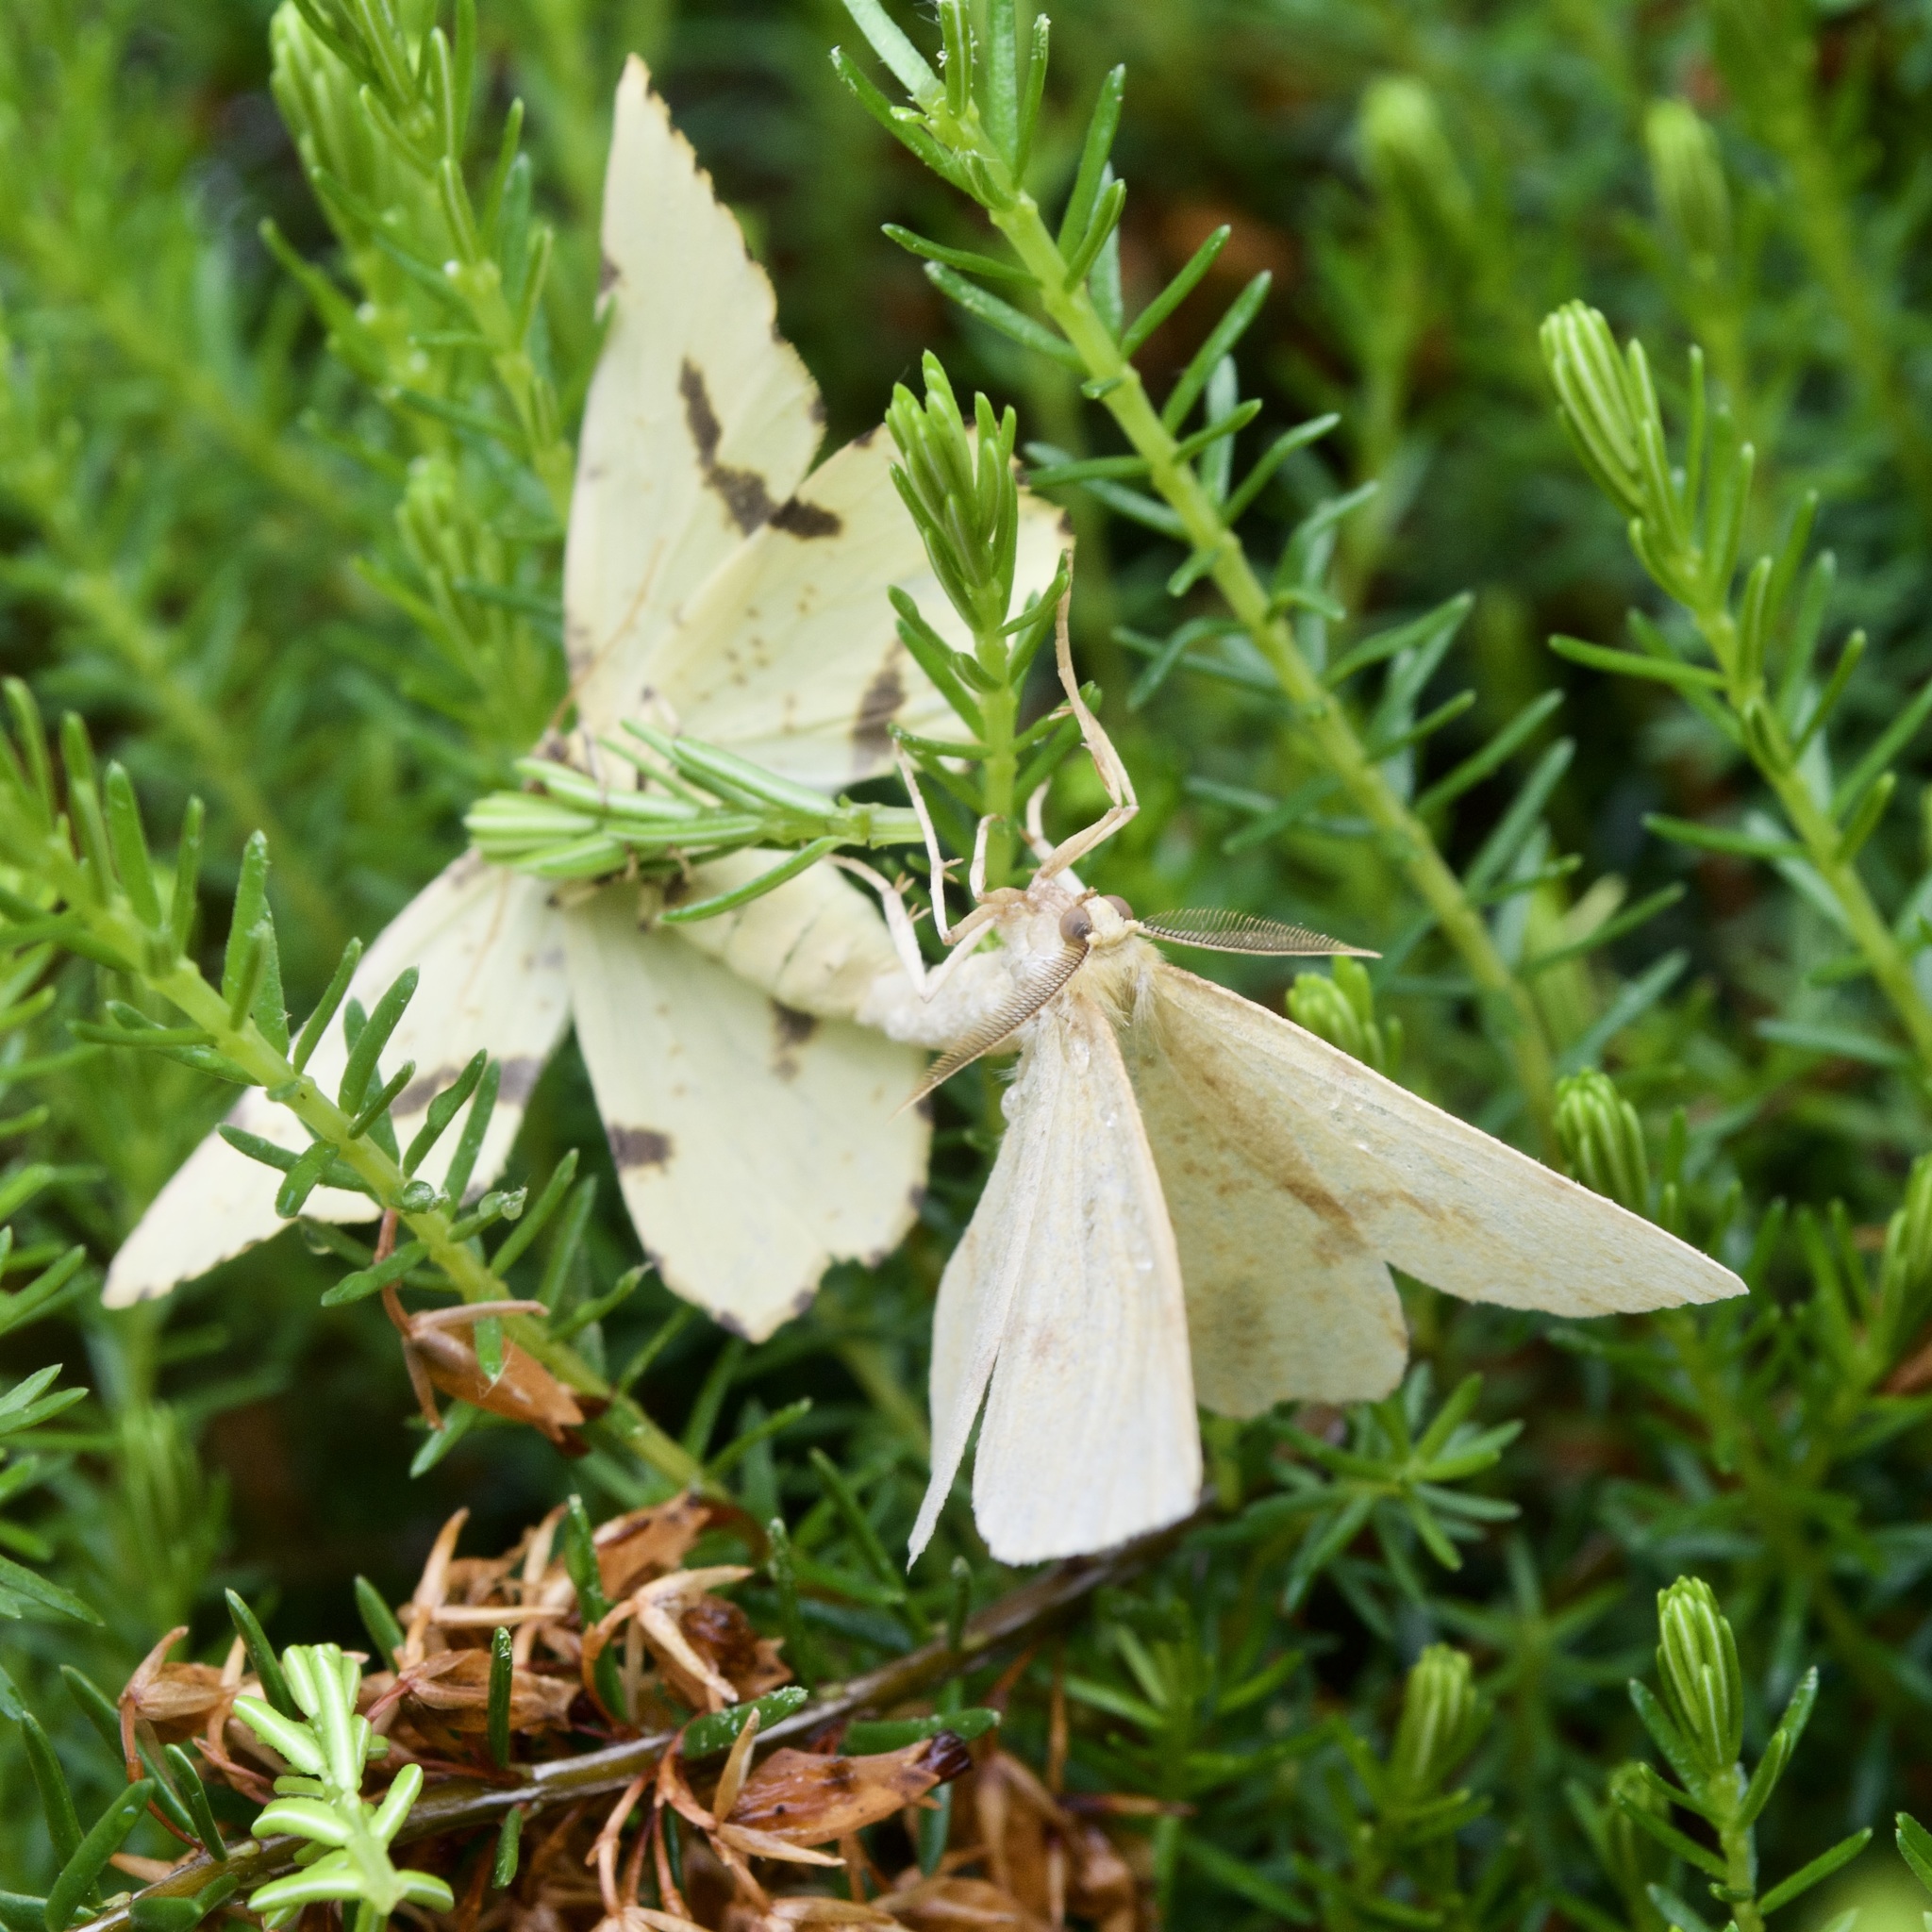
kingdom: Animalia
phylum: Arthropoda
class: Insecta
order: Lepidoptera
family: Geometridae
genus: Xanthotype
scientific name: Xanthotype
